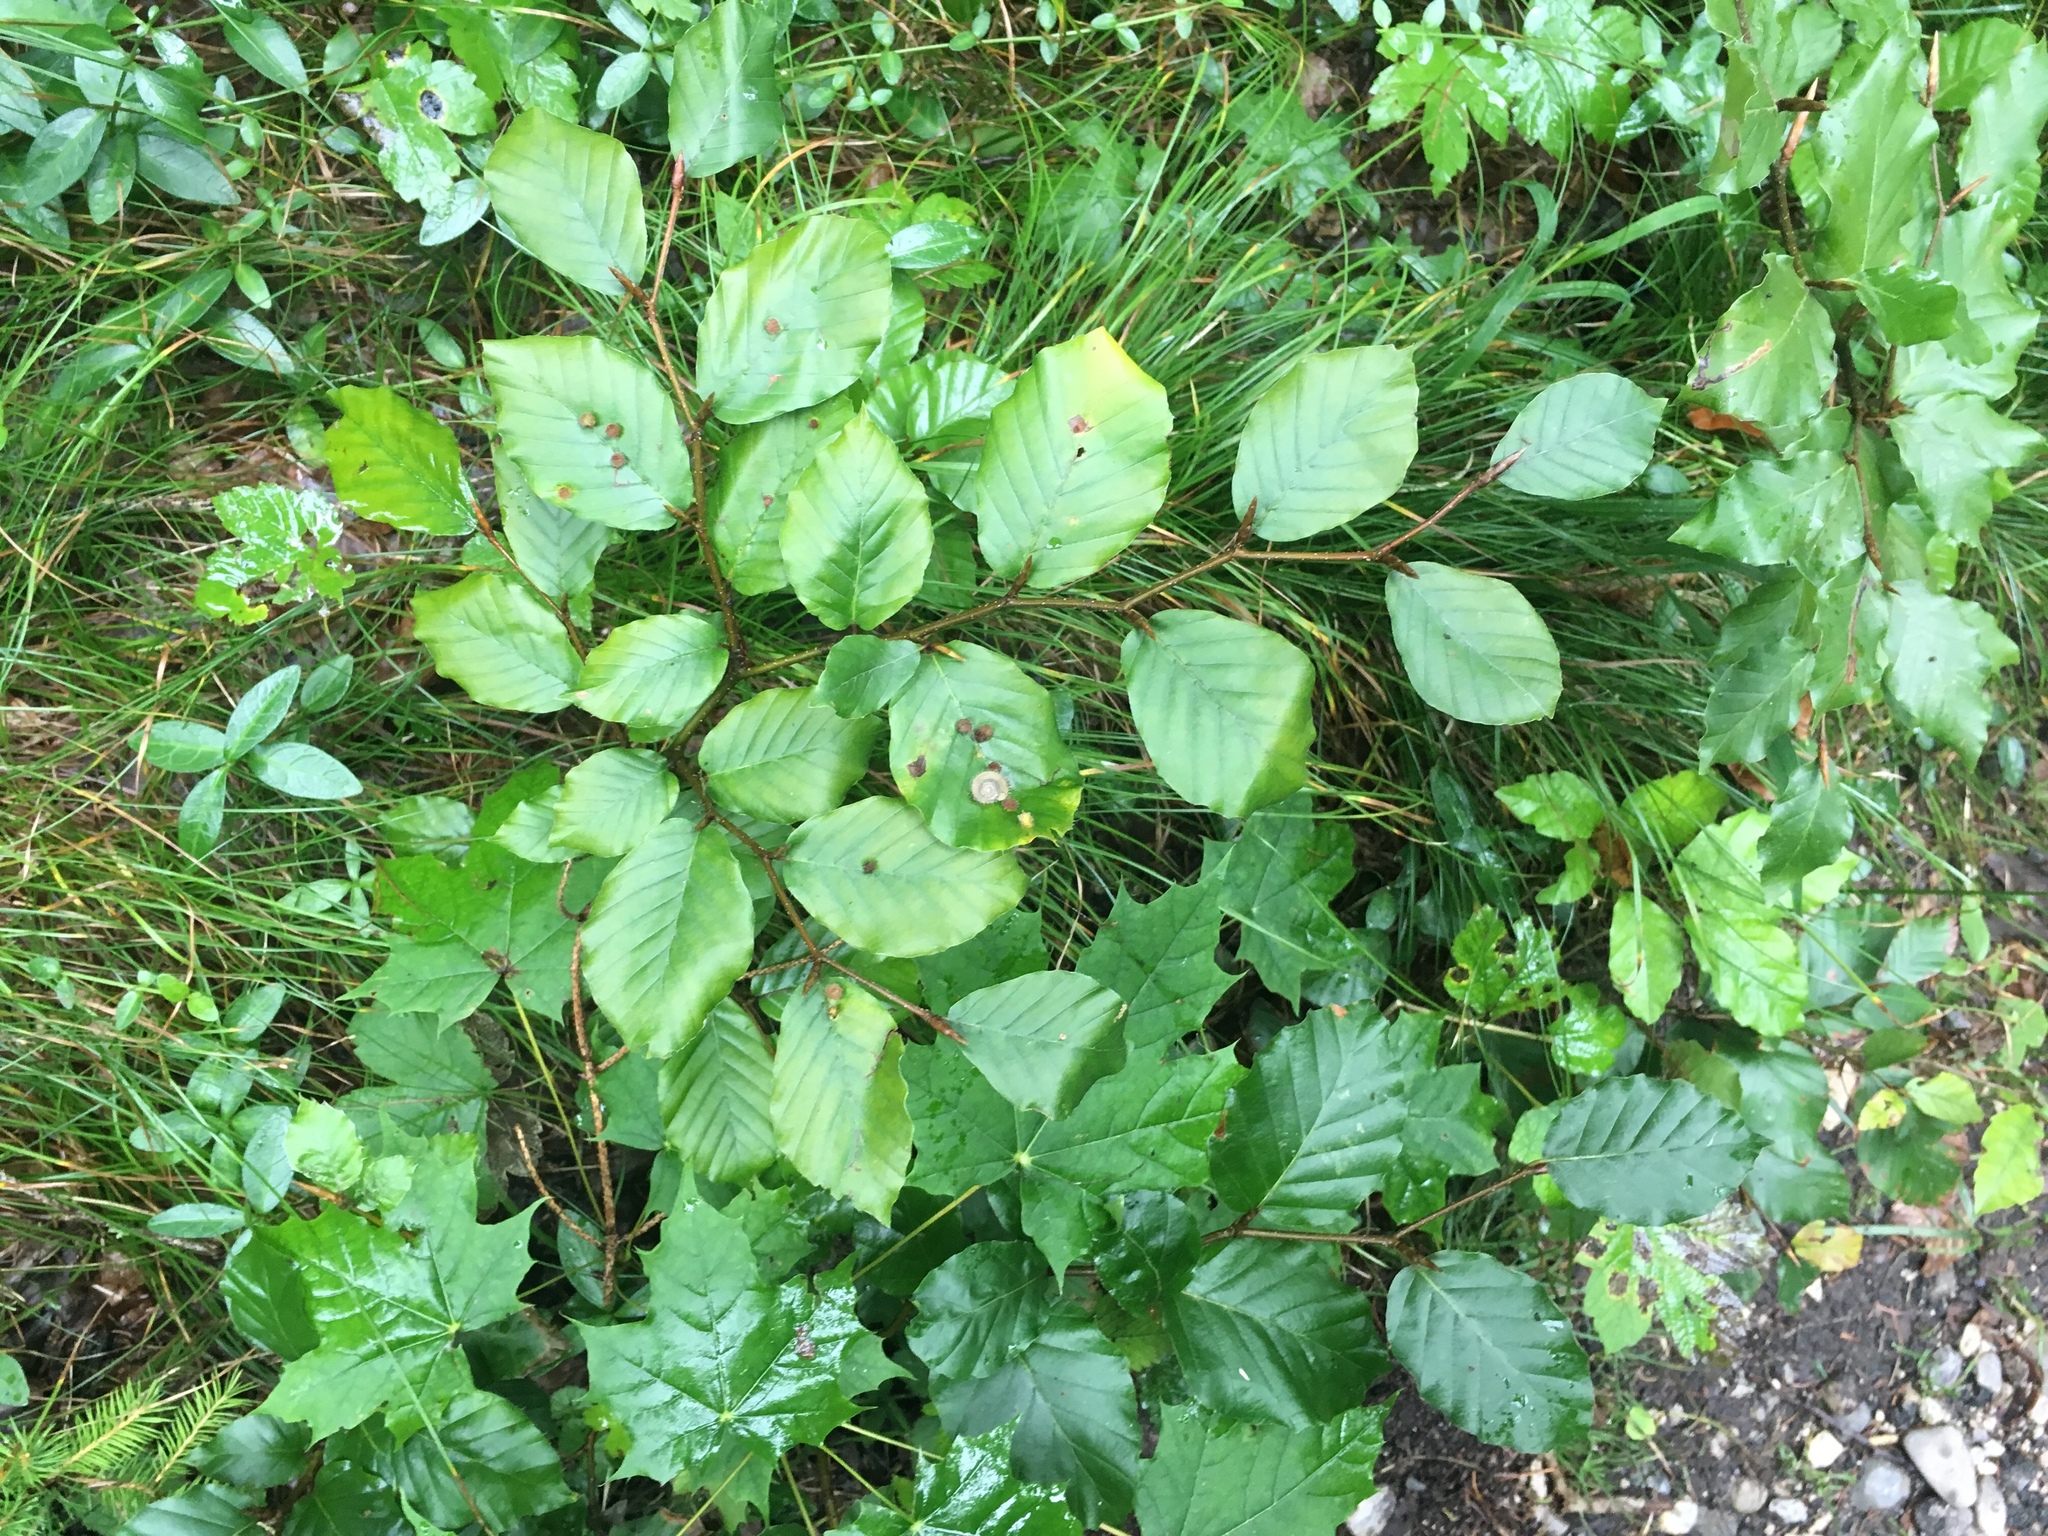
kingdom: Plantae
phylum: Tracheophyta
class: Magnoliopsida
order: Fagales
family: Fagaceae
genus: Fagus
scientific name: Fagus sylvatica
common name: Beech
